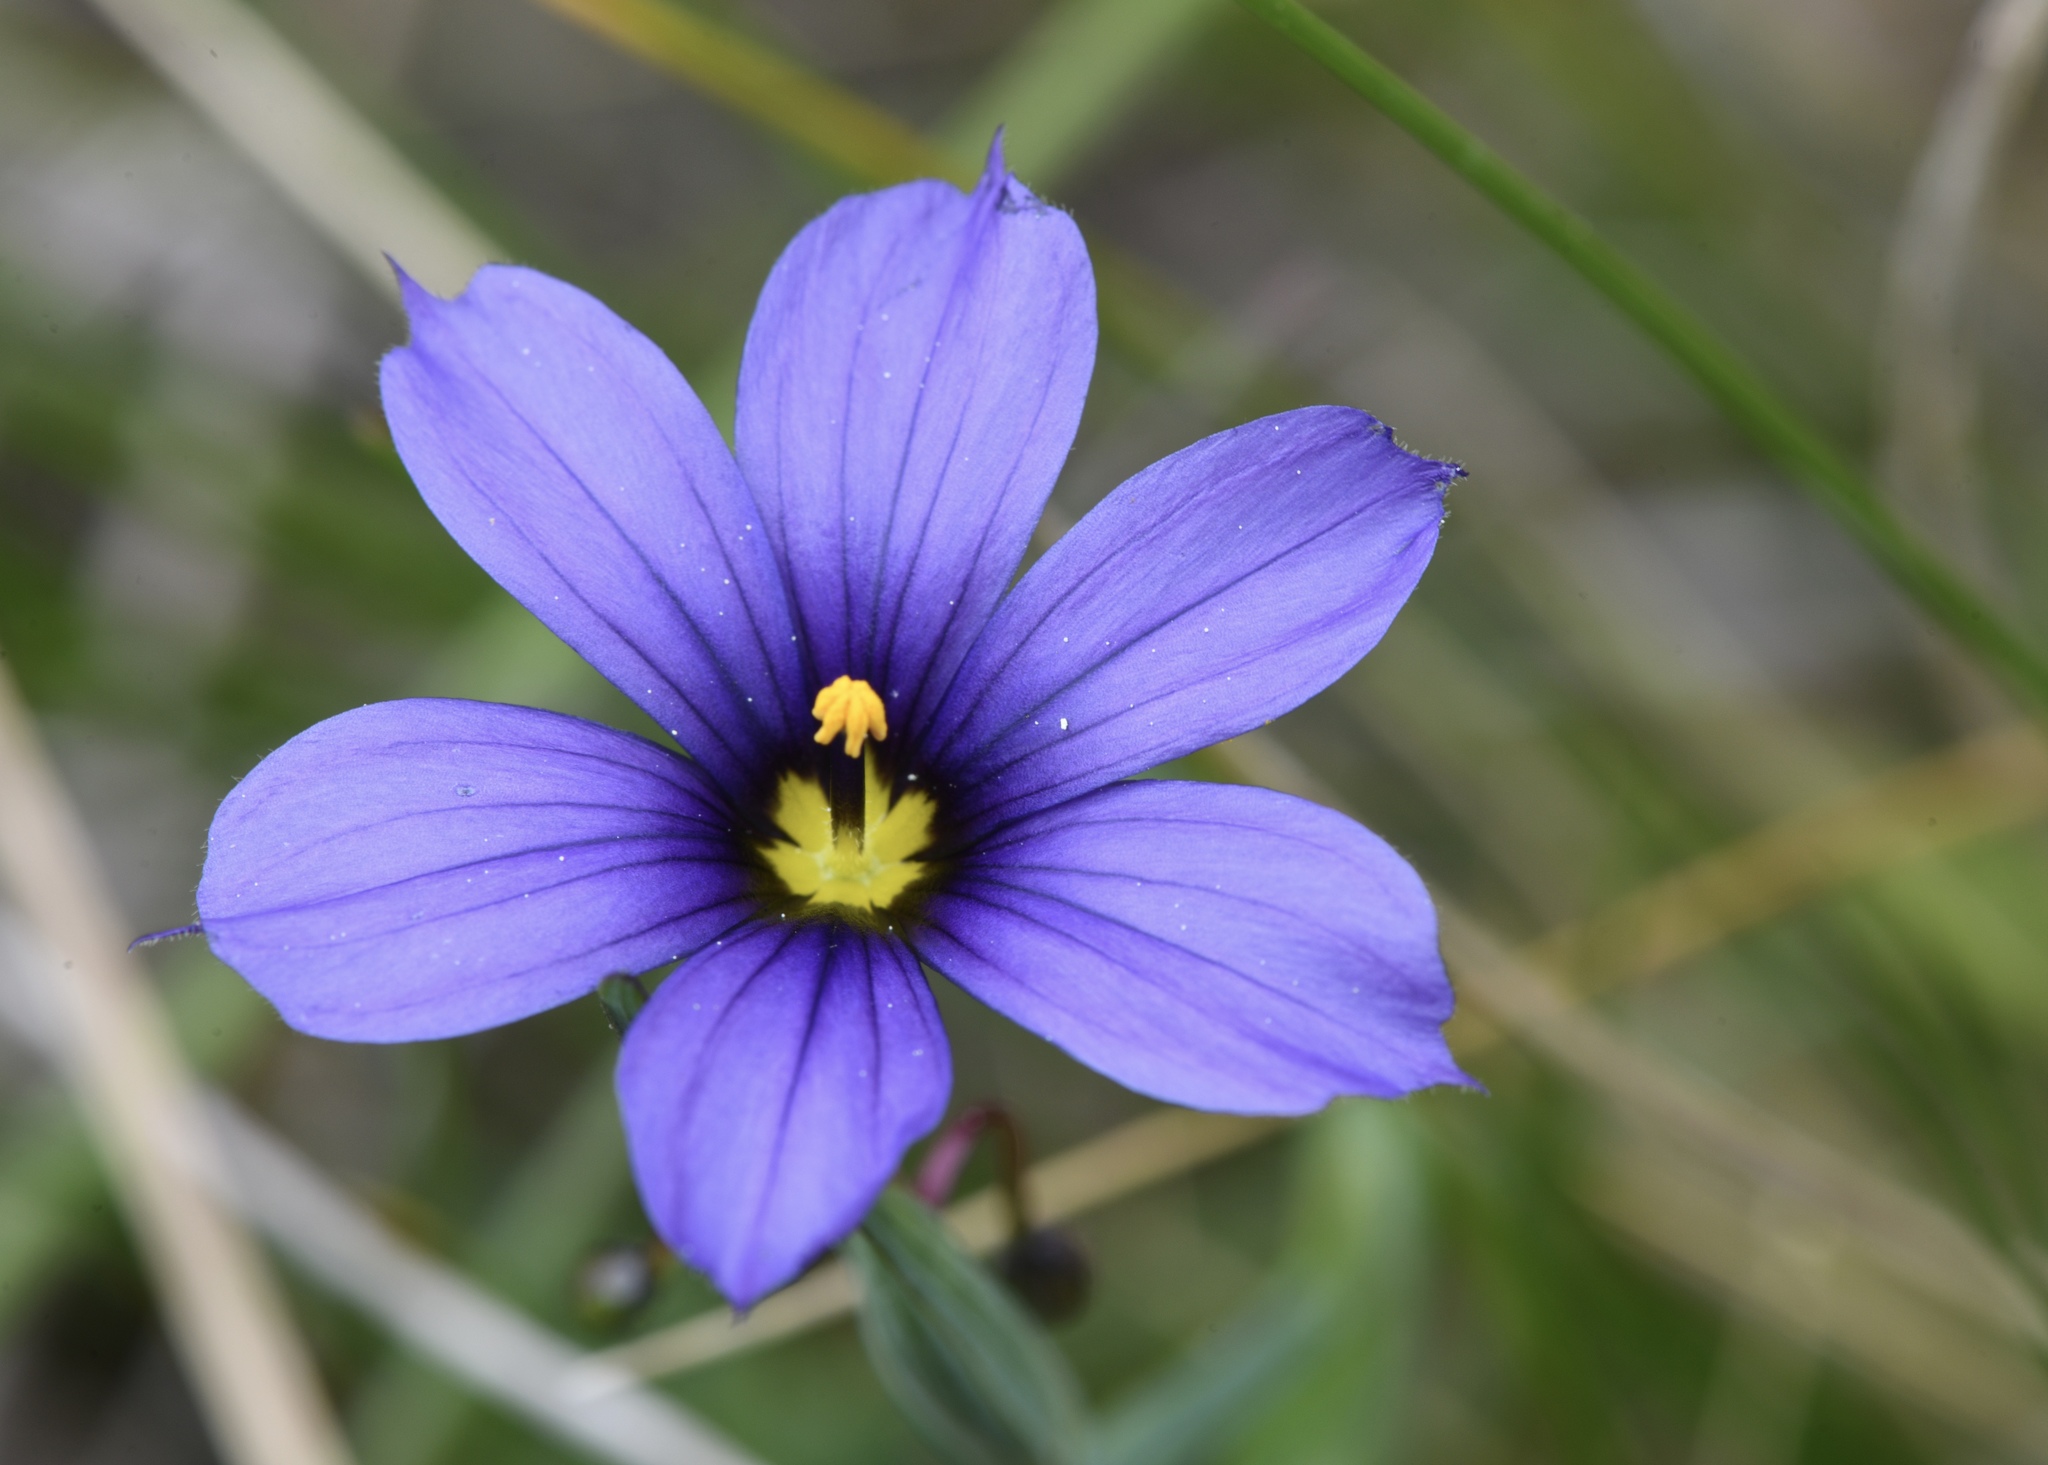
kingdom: Plantae
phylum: Tracheophyta
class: Liliopsida
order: Asparagales
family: Iridaceae
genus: Sisyrinchium
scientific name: Sisyrinchium bellum
